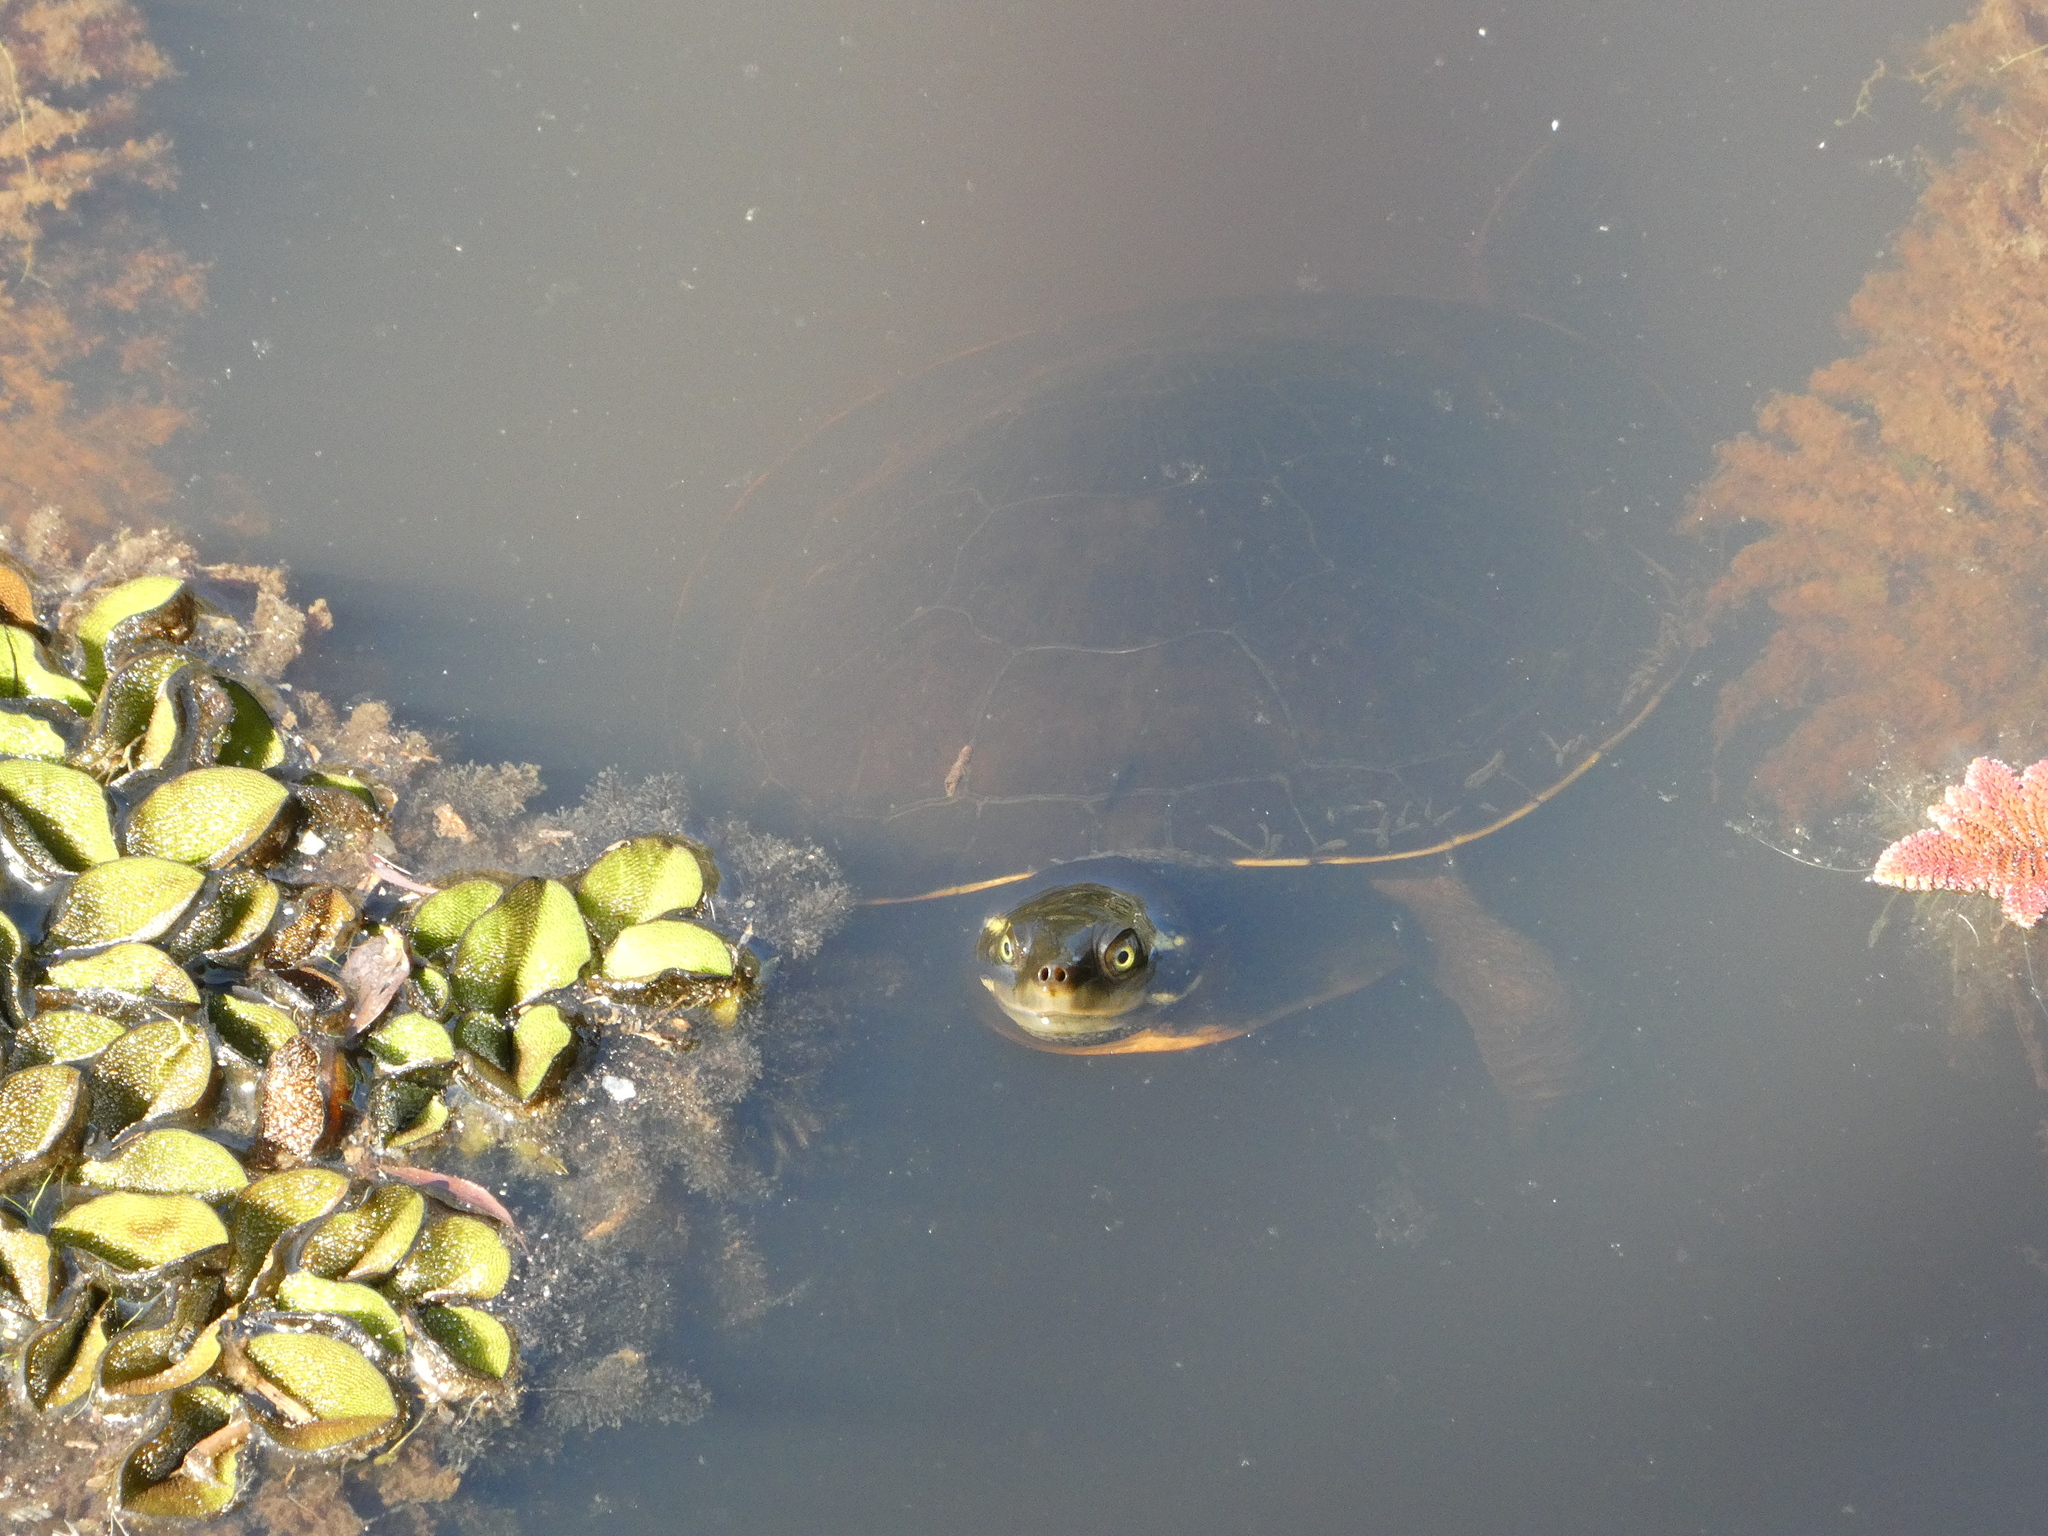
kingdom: Animalia
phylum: Chordata
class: Testudines
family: Chelidae
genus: Emydura
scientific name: Emydura macquarii
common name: Murray river turtle
